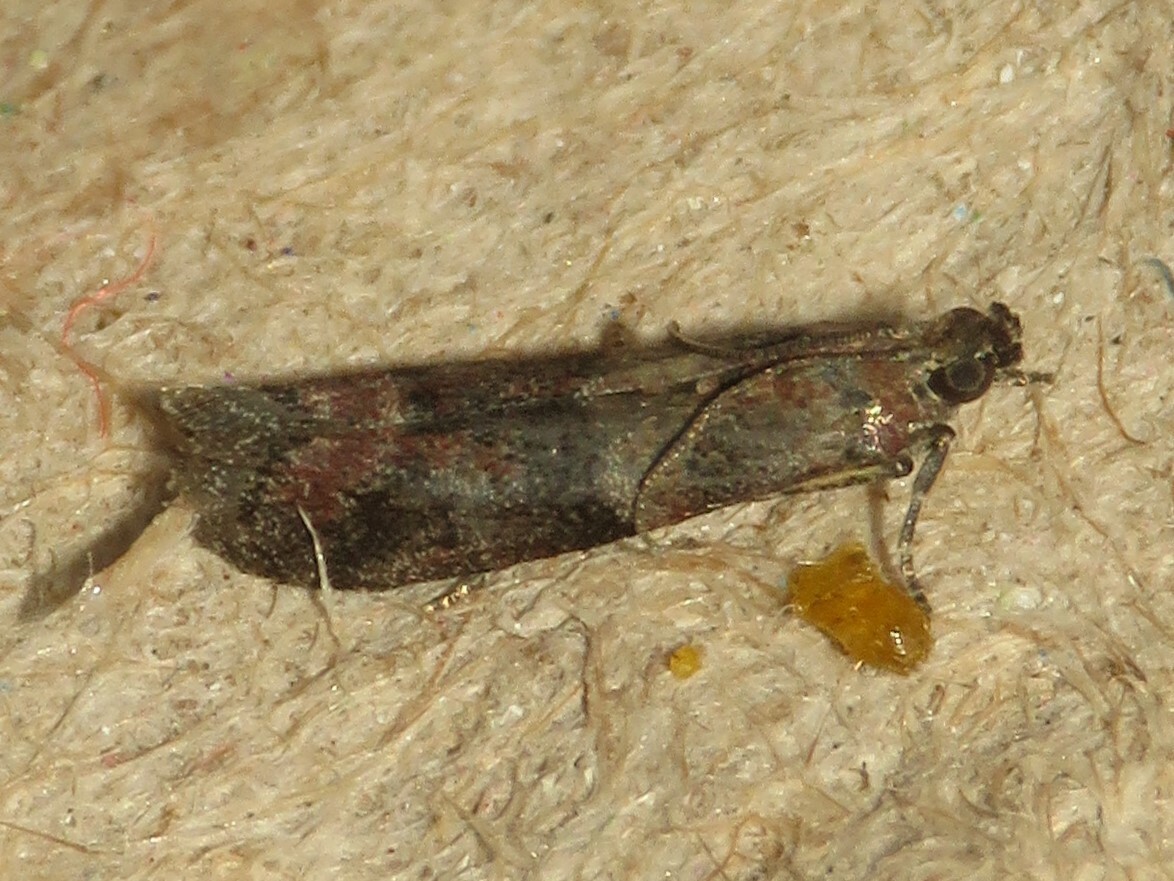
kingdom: Animalia
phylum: Arthropoda
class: Insecta
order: Lepidoptera
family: Pyralidae
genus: Ephestiodes
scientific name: Ephestiodes infimella
